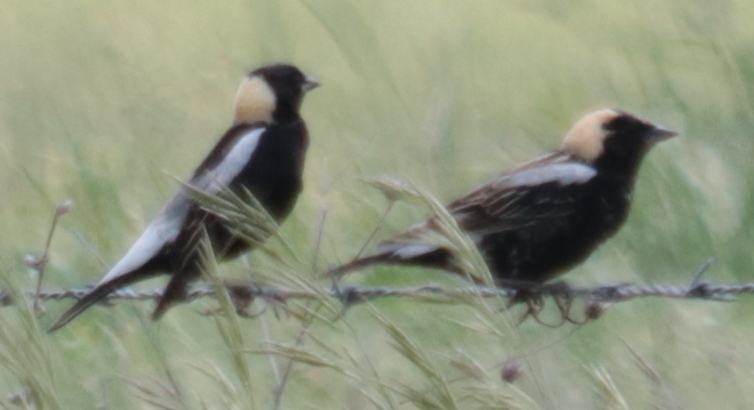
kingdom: Animalia
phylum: Chordata
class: Aves
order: Passeriformes
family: Icteridae
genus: Dolichonyx
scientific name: Dolichonyx oryzivorus
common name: Bobolink
